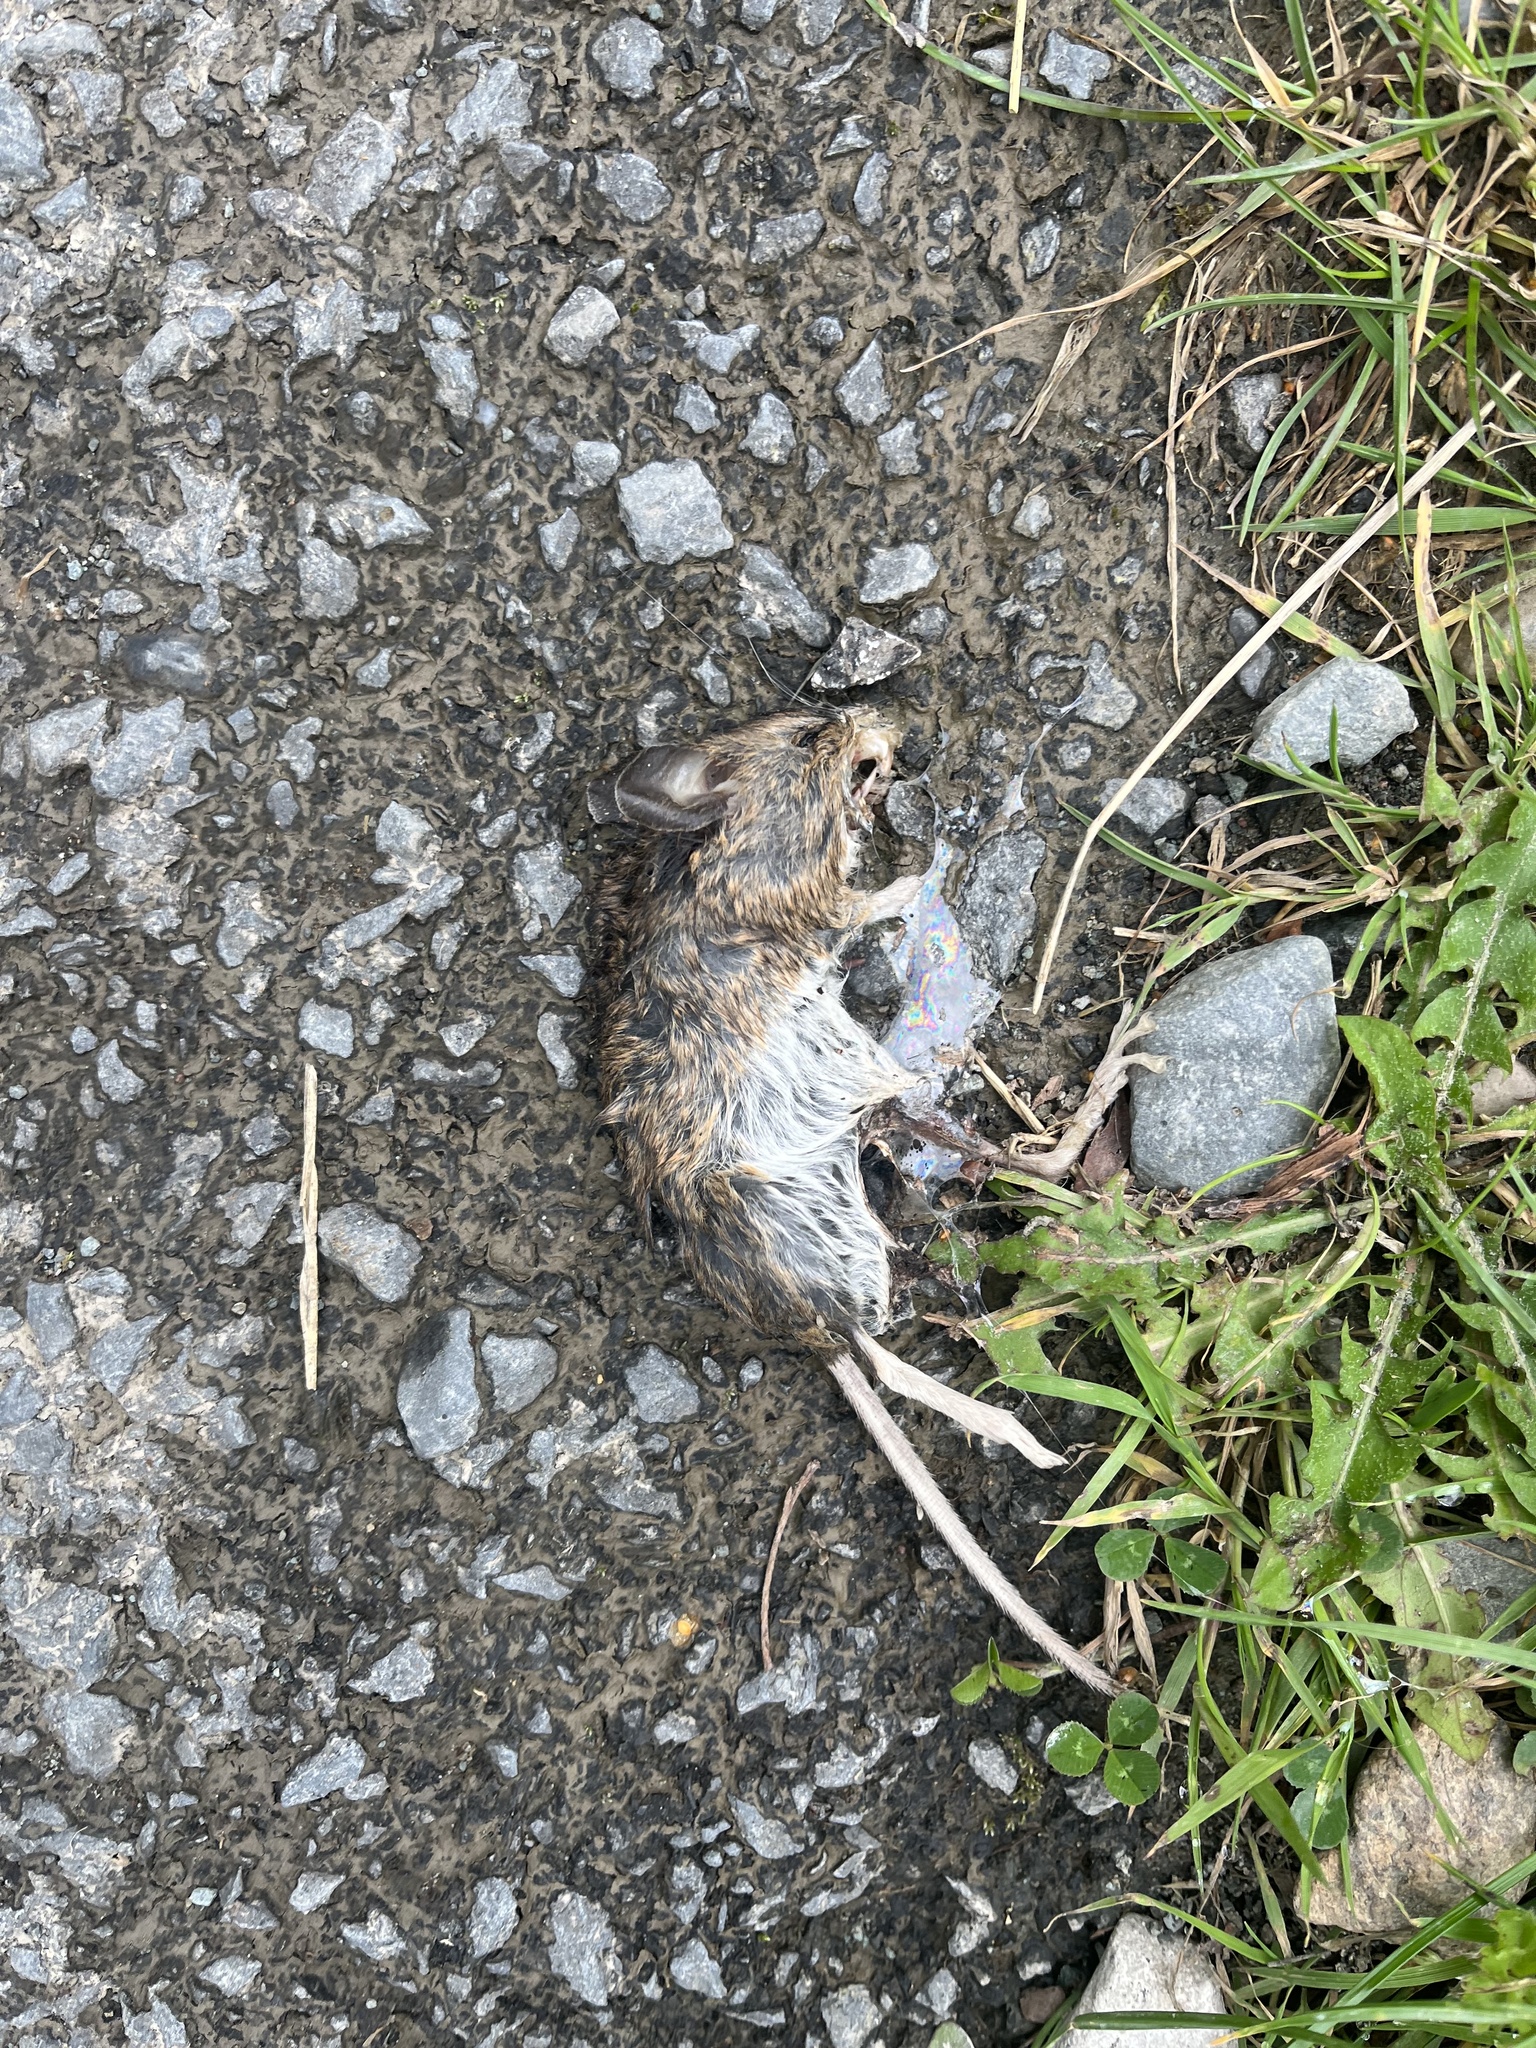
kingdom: Animalia
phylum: Chordata
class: Mammalia
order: Rodentia
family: Muridae
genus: Apodemus
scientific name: Apodemus sylvaticus
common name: Wood mouse
